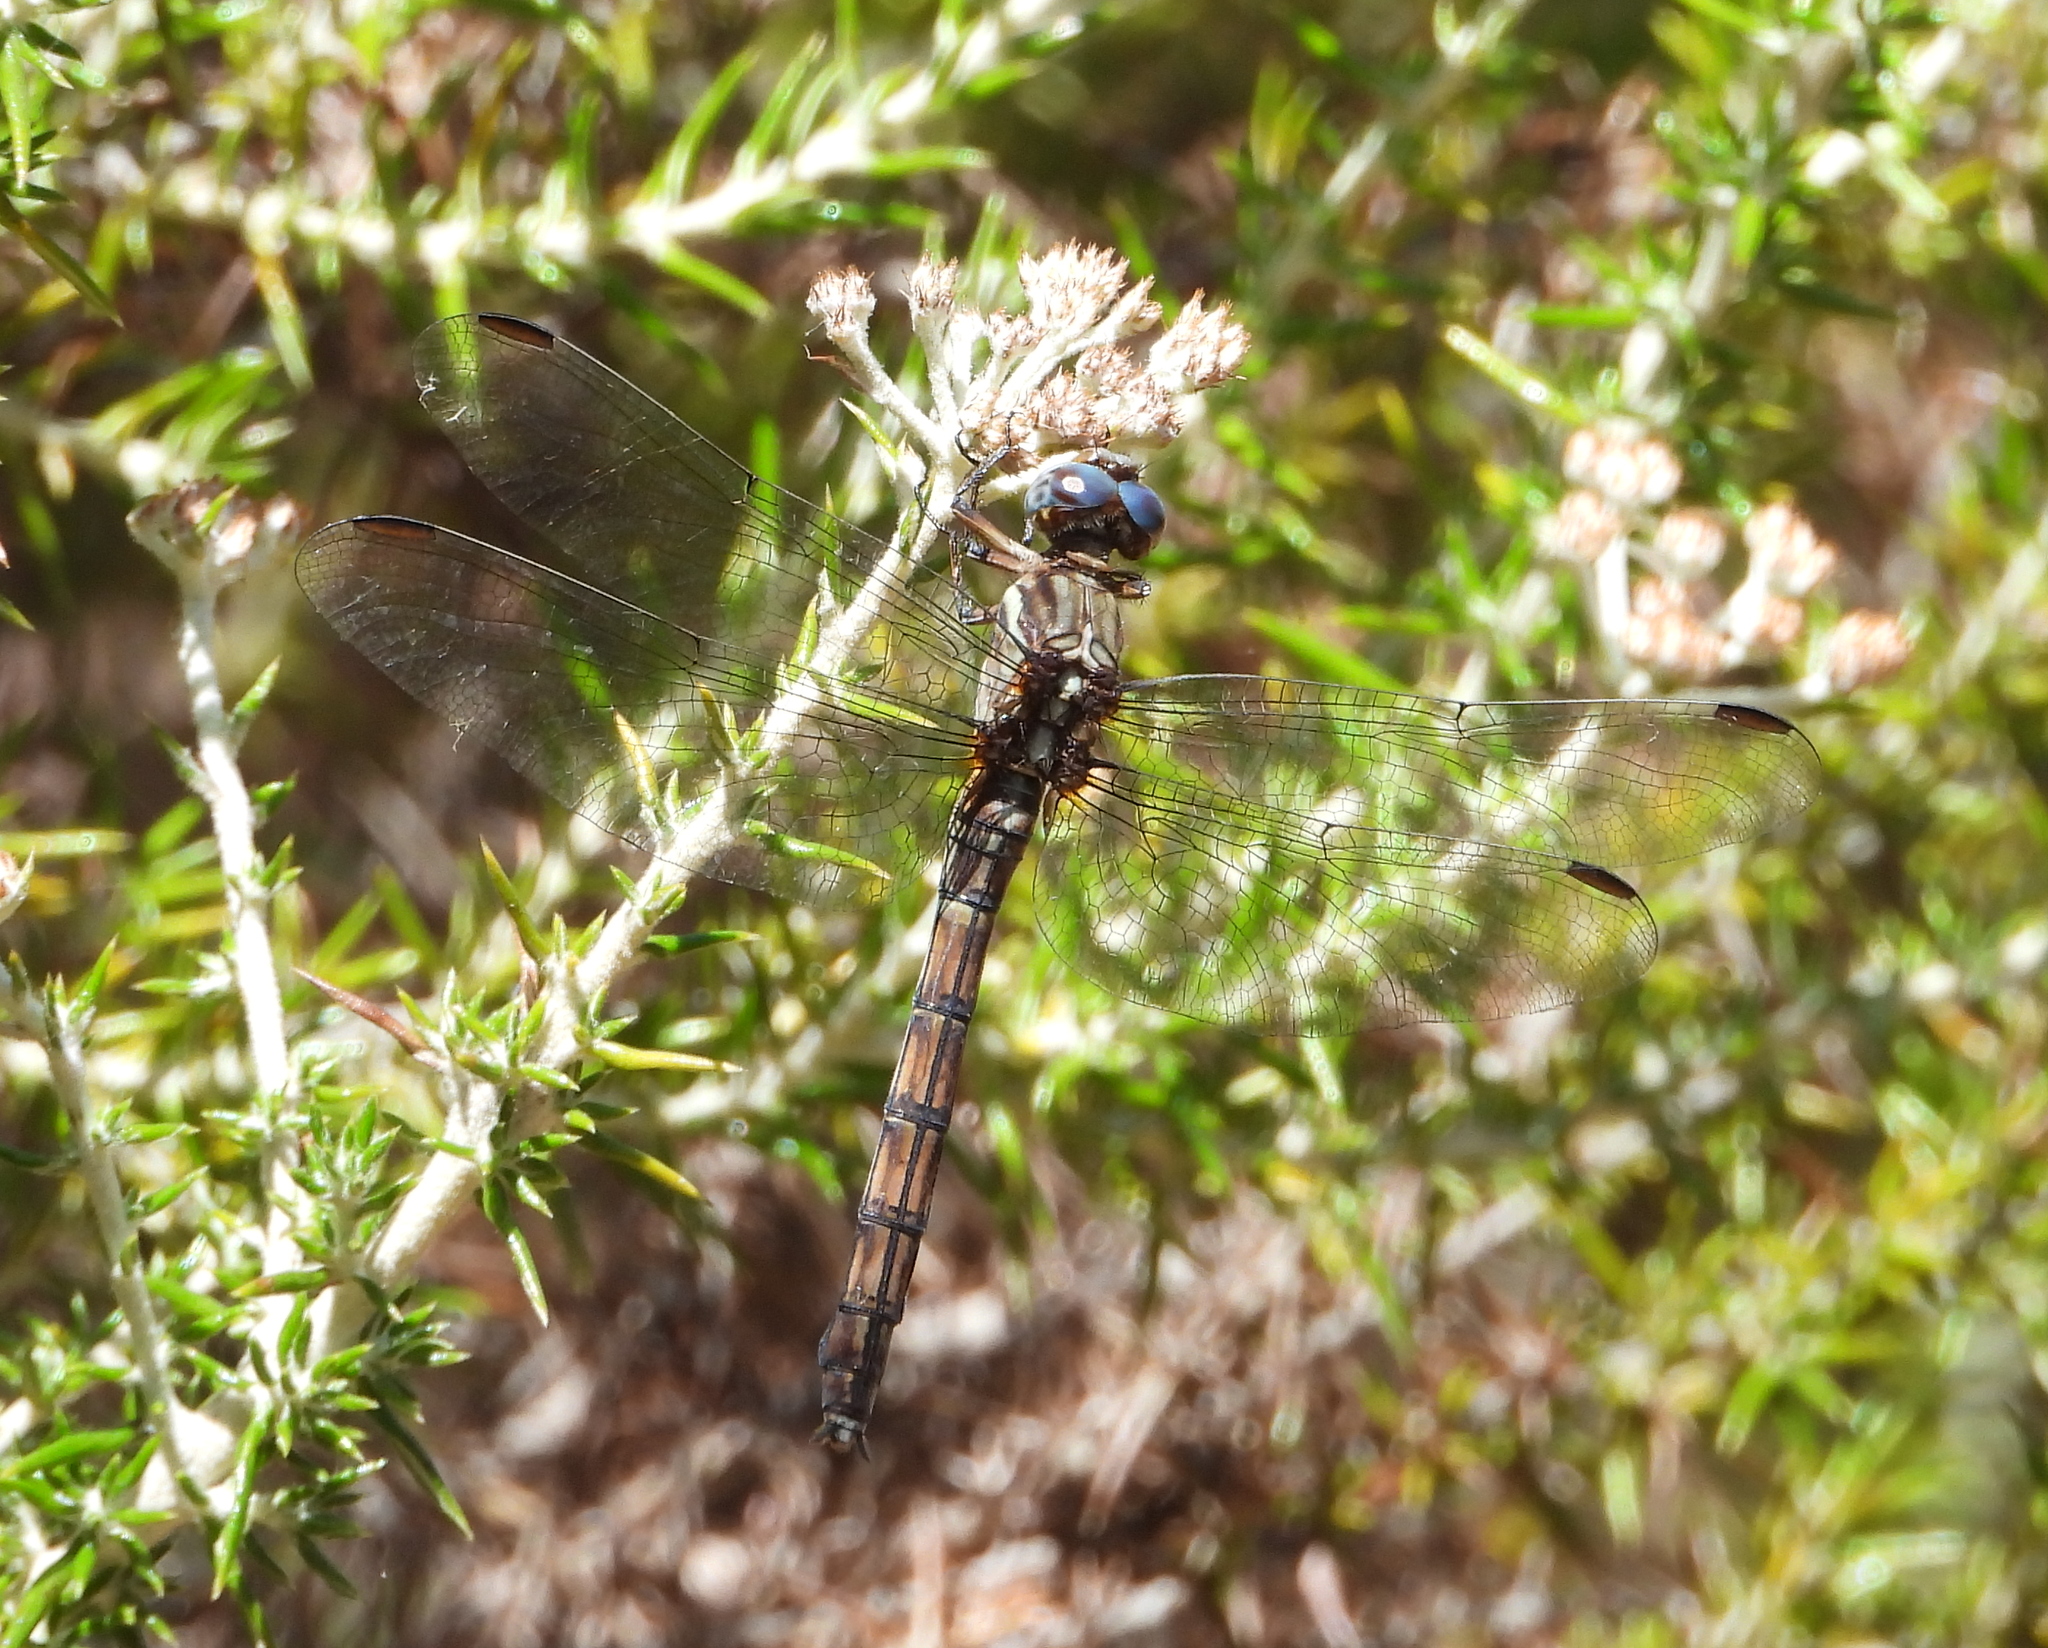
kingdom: Animalia
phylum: Arthropoda
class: Insecta
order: Odonata
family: Libellulidae
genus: Orthetrum
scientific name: Orthetrum julia
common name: Julia skimmer
